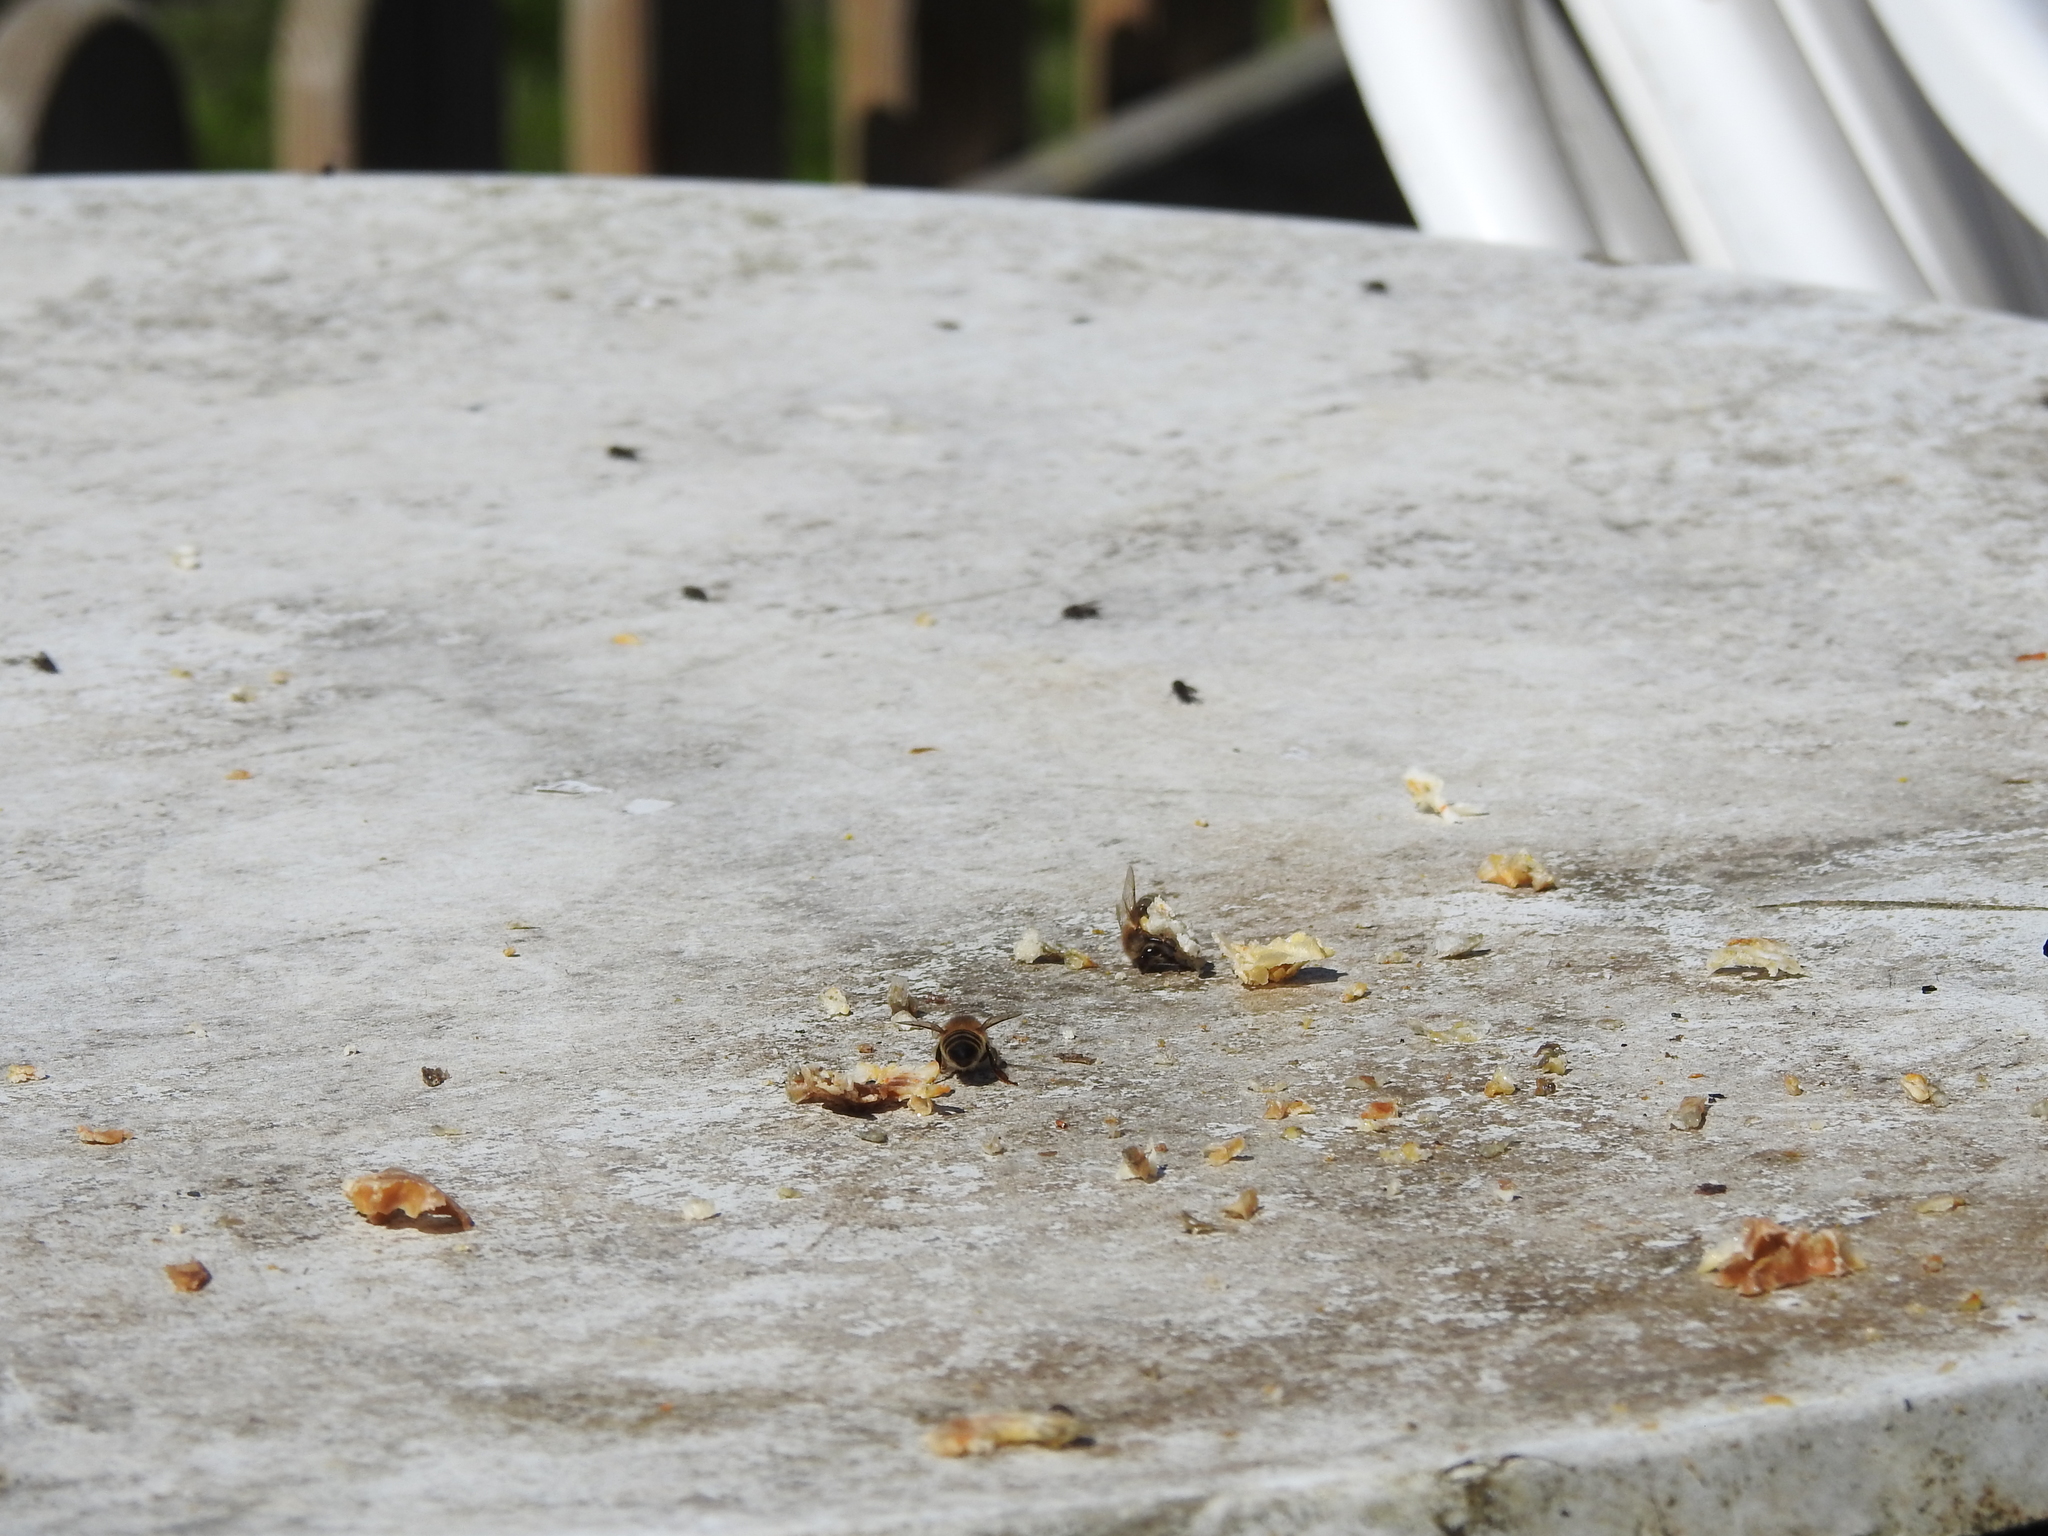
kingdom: Animalia
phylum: Arthropoda
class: Insecta
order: Hymenoptera
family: Apidae
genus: Apis
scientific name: Apis mellifera
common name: Honey bee
